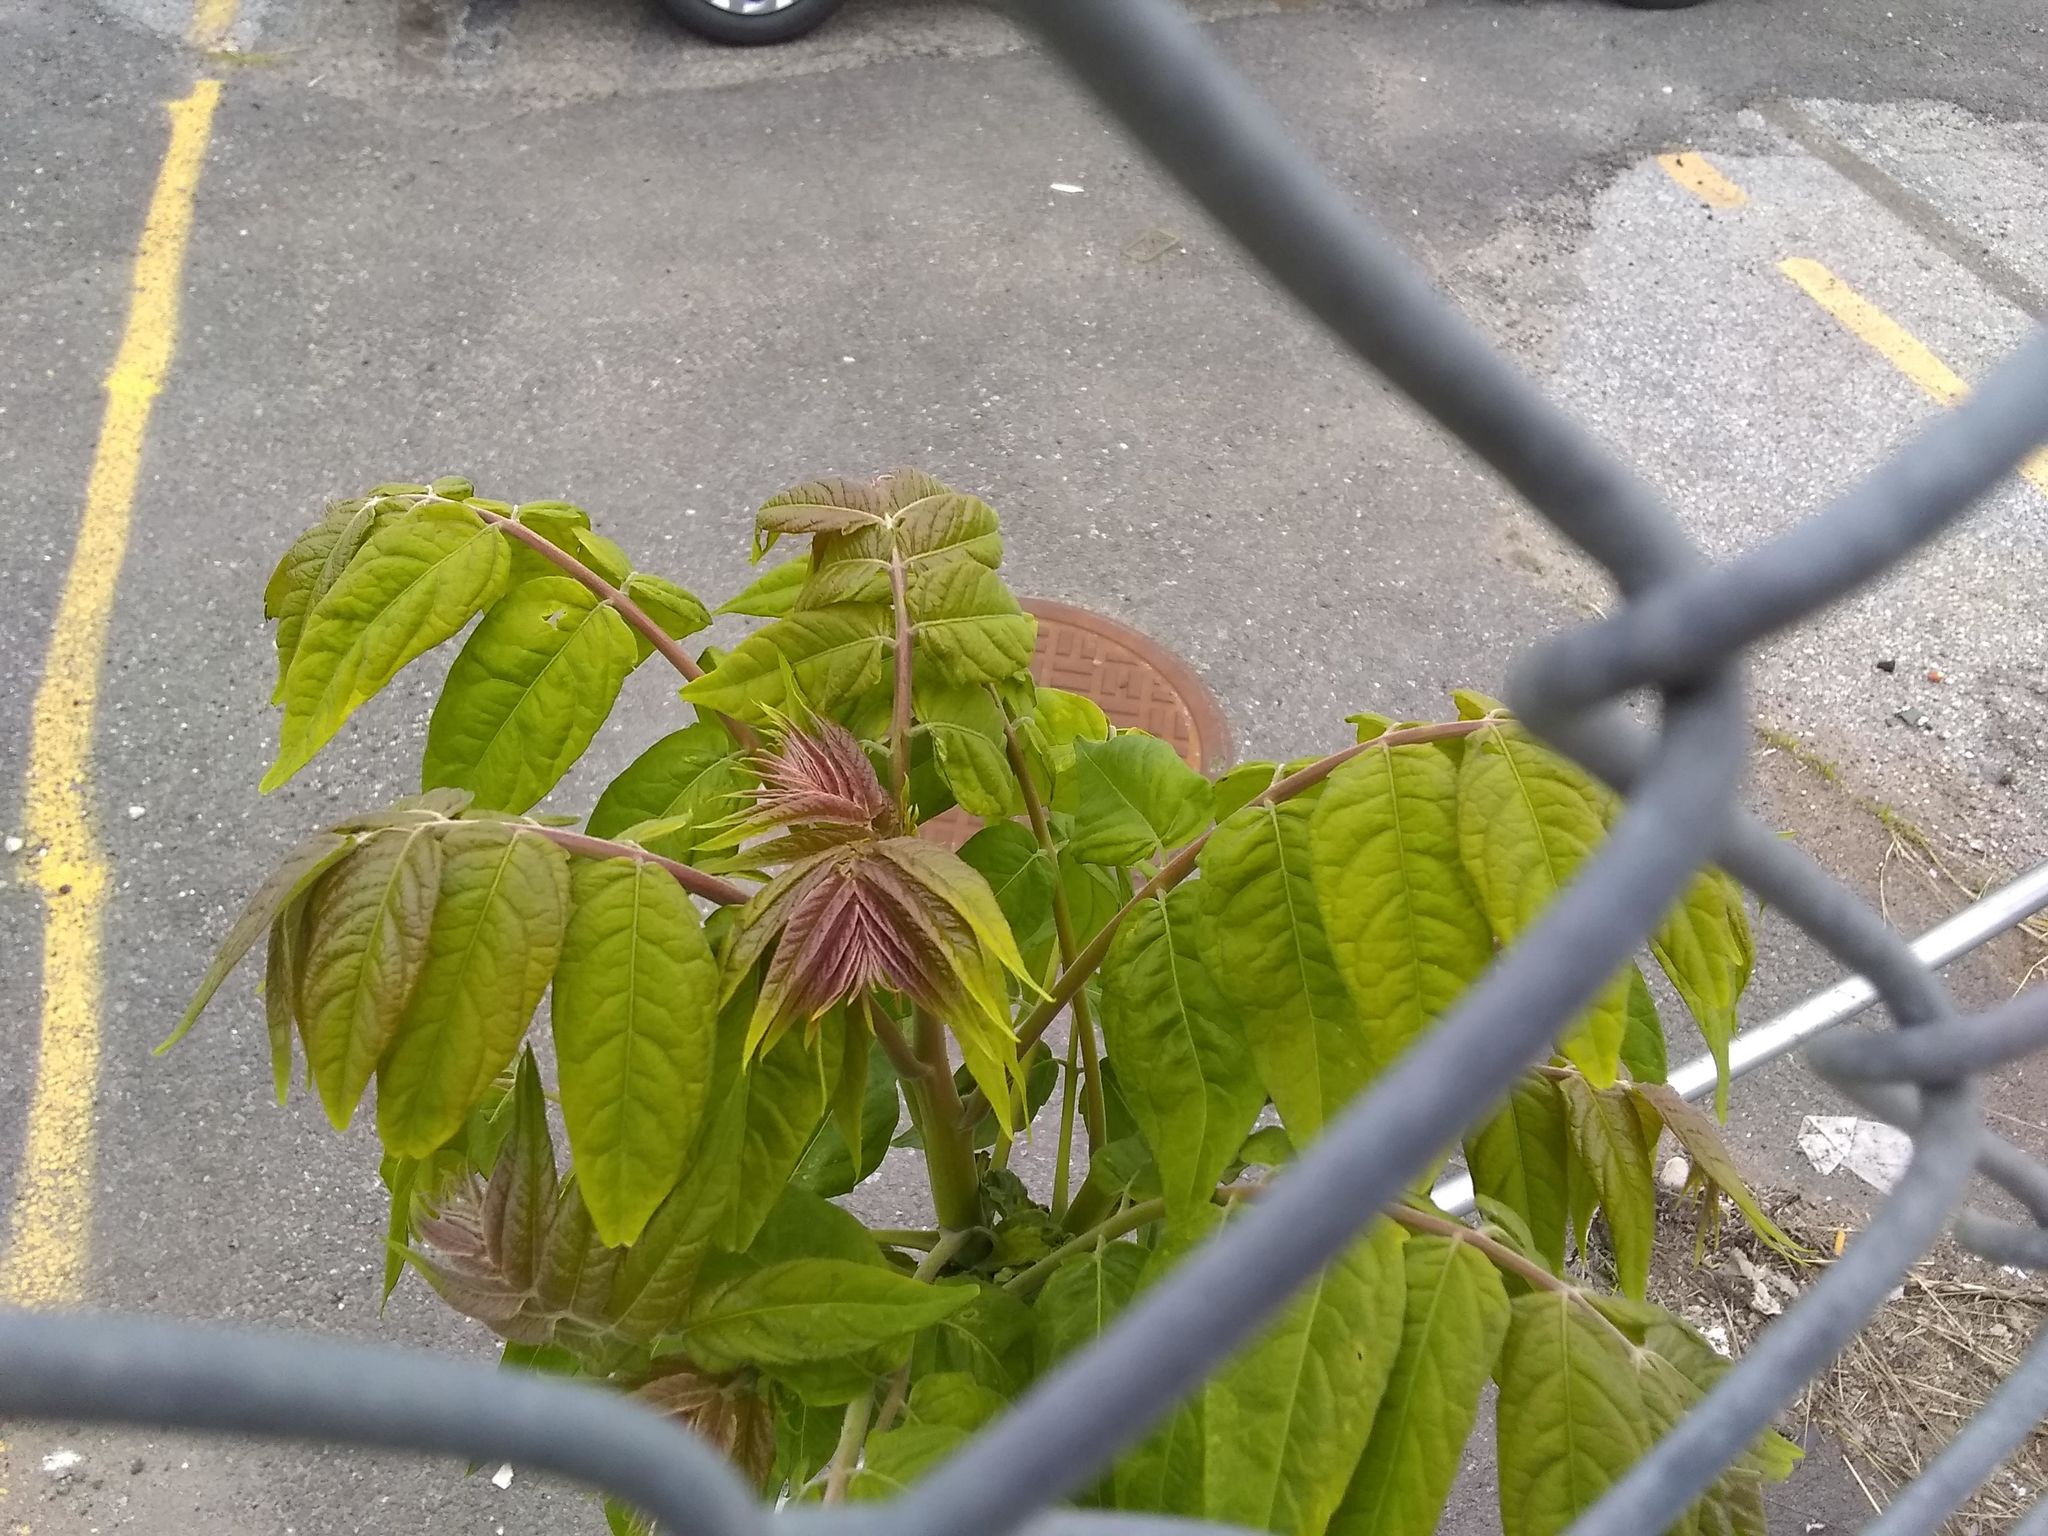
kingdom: Plantae
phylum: Tracheophyta
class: Magnoliopsida
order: Sapindales
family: Simaroubaceae
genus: Ailanthus
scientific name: Ailanthus altissima
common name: Tree-of-heaven
